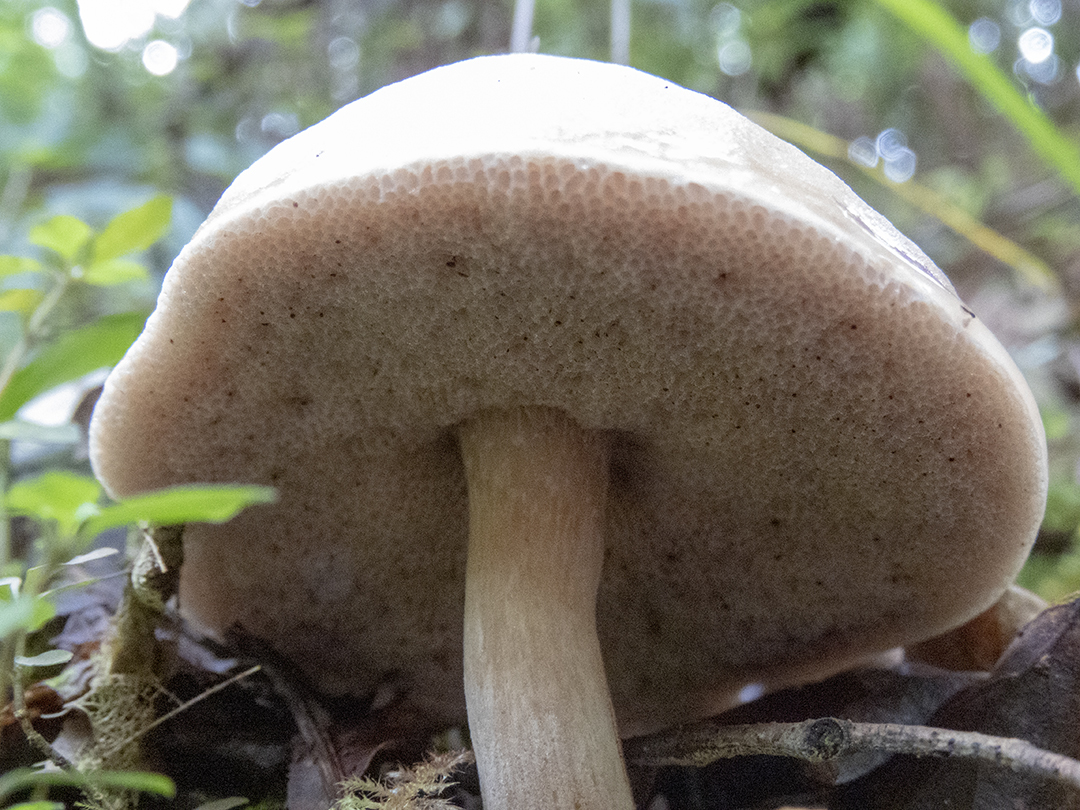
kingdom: Fungi
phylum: Basidiomycota
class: Agaricomycetes
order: Boletales
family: Boletaceae
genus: Fistulinella
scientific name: Fistulinella violaceipora
